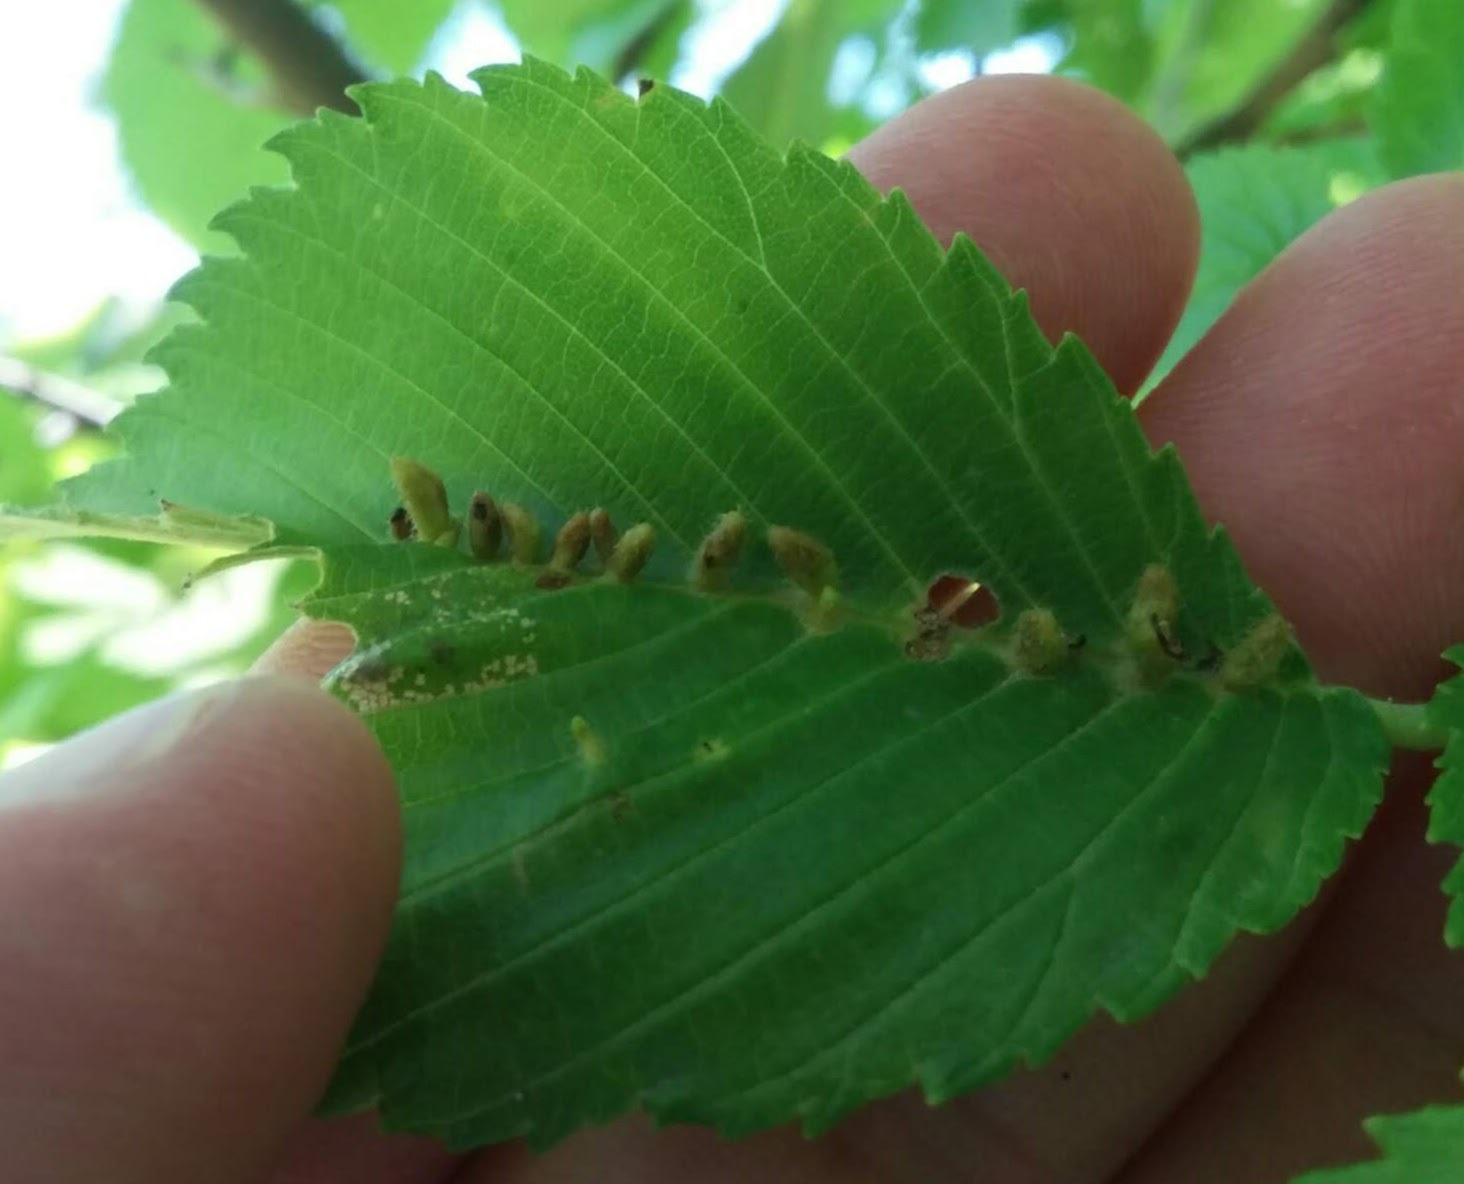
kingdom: Animalia
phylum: Arthropoda
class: Arachnida
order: Trombidiformes
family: Eriophyidae
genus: Aceria
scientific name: Aceria
